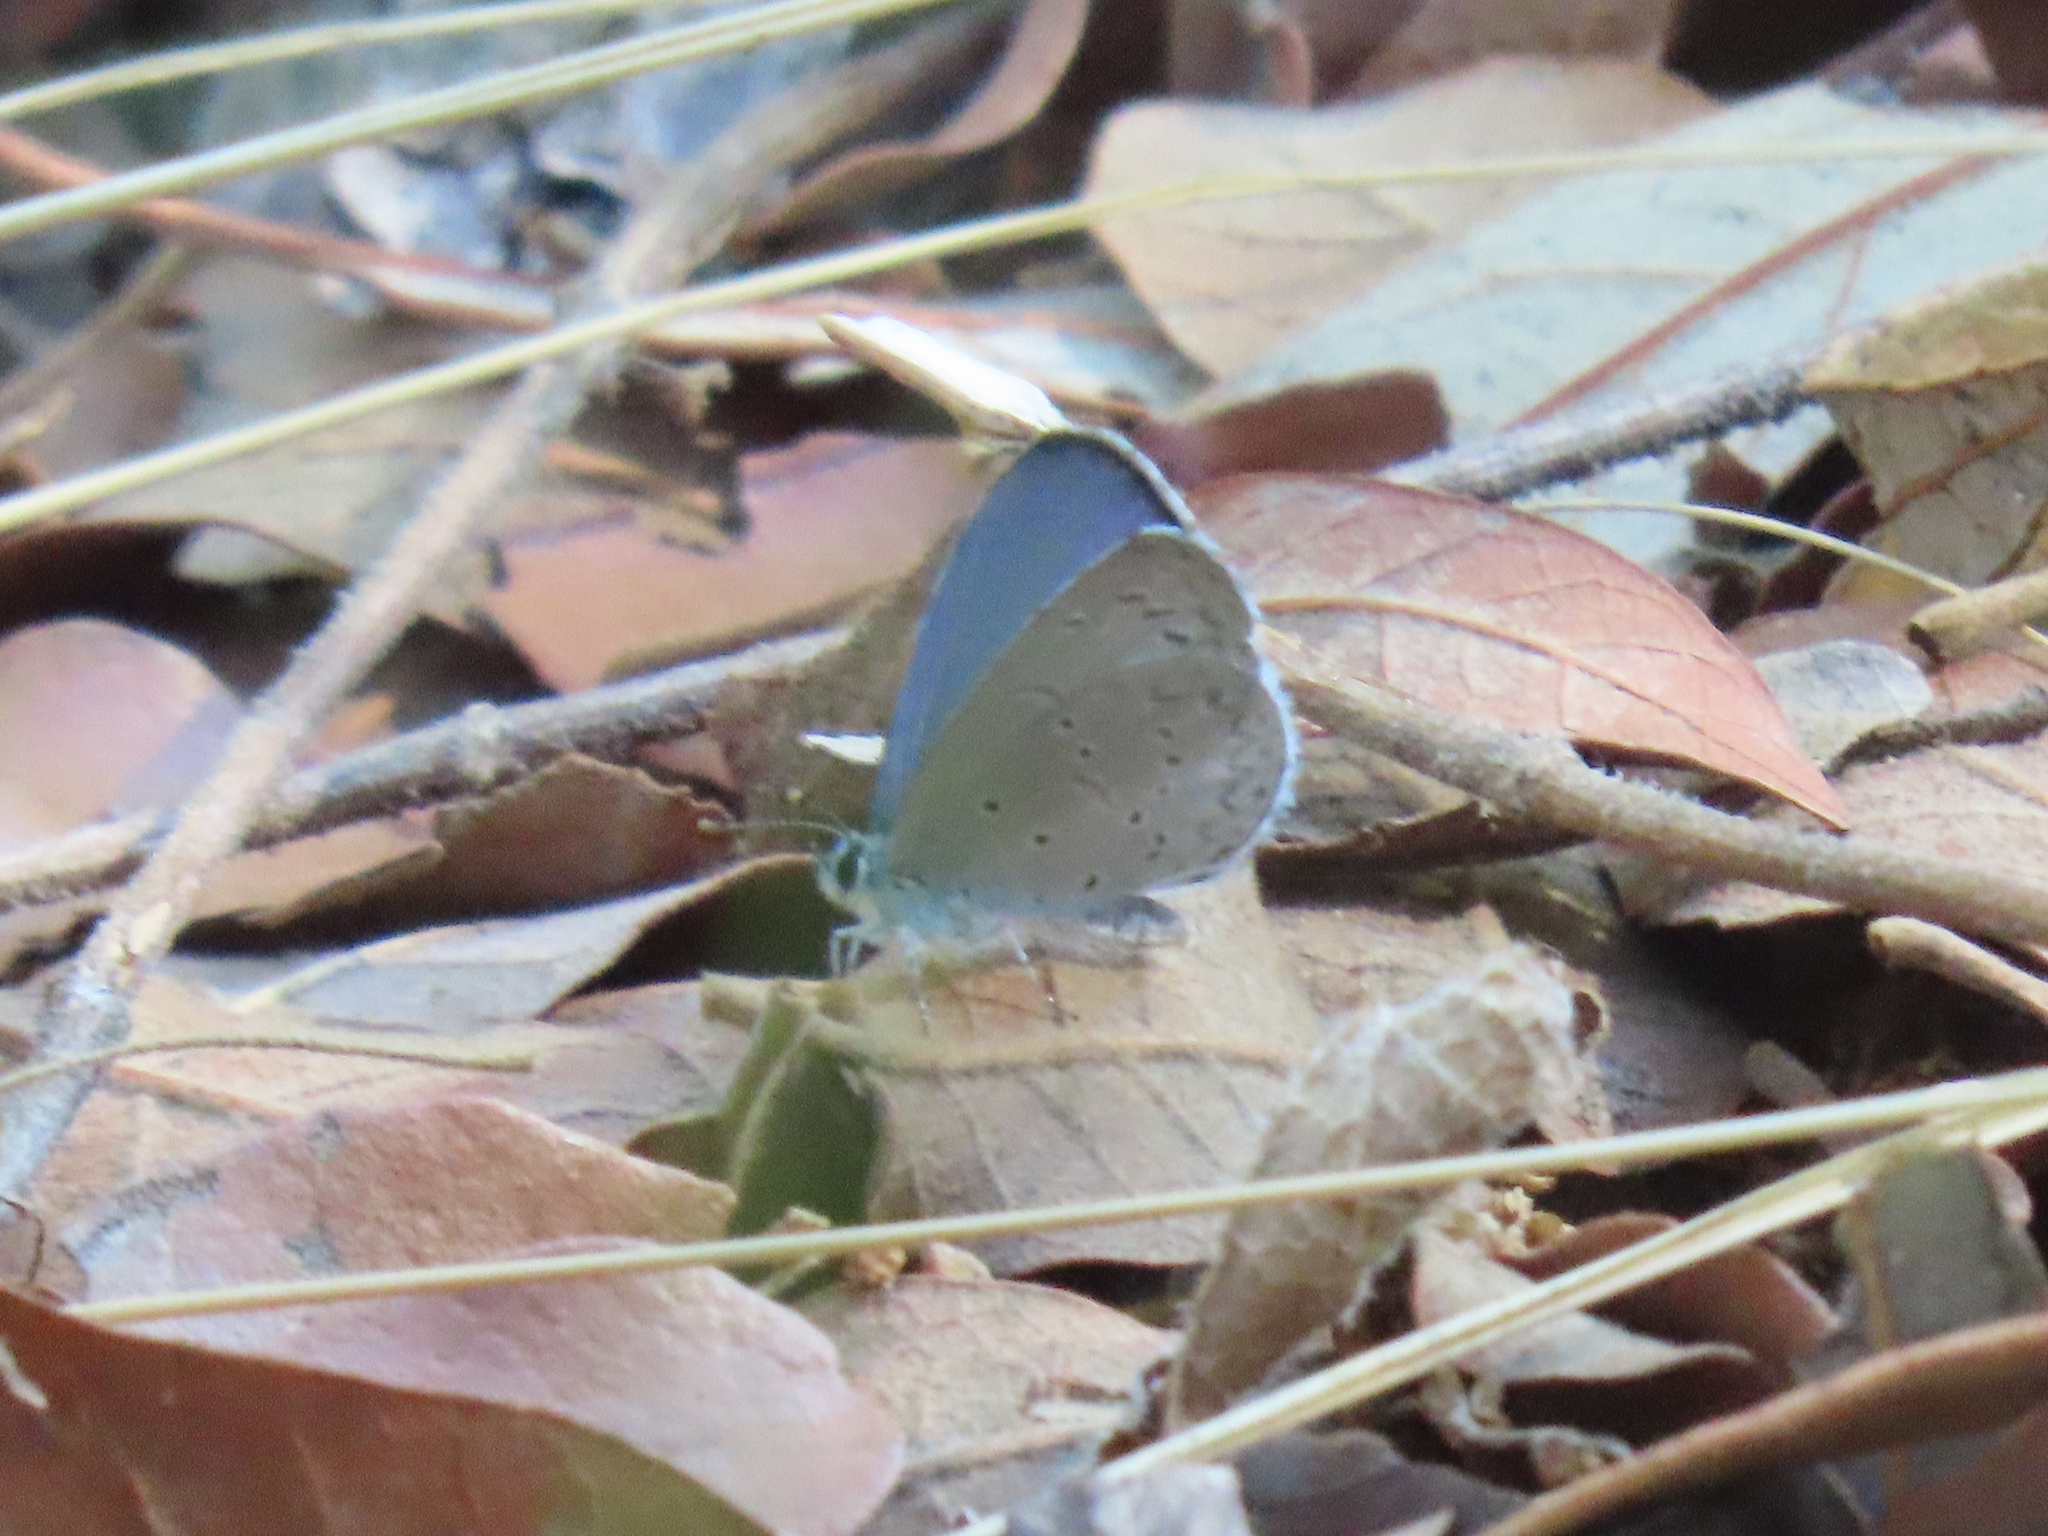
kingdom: Animalia
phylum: Arthropoda
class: Insecta
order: Lepidoptera
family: Lycaenidae
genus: Celastrina
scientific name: Celastrina ladon
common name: Spring azure
